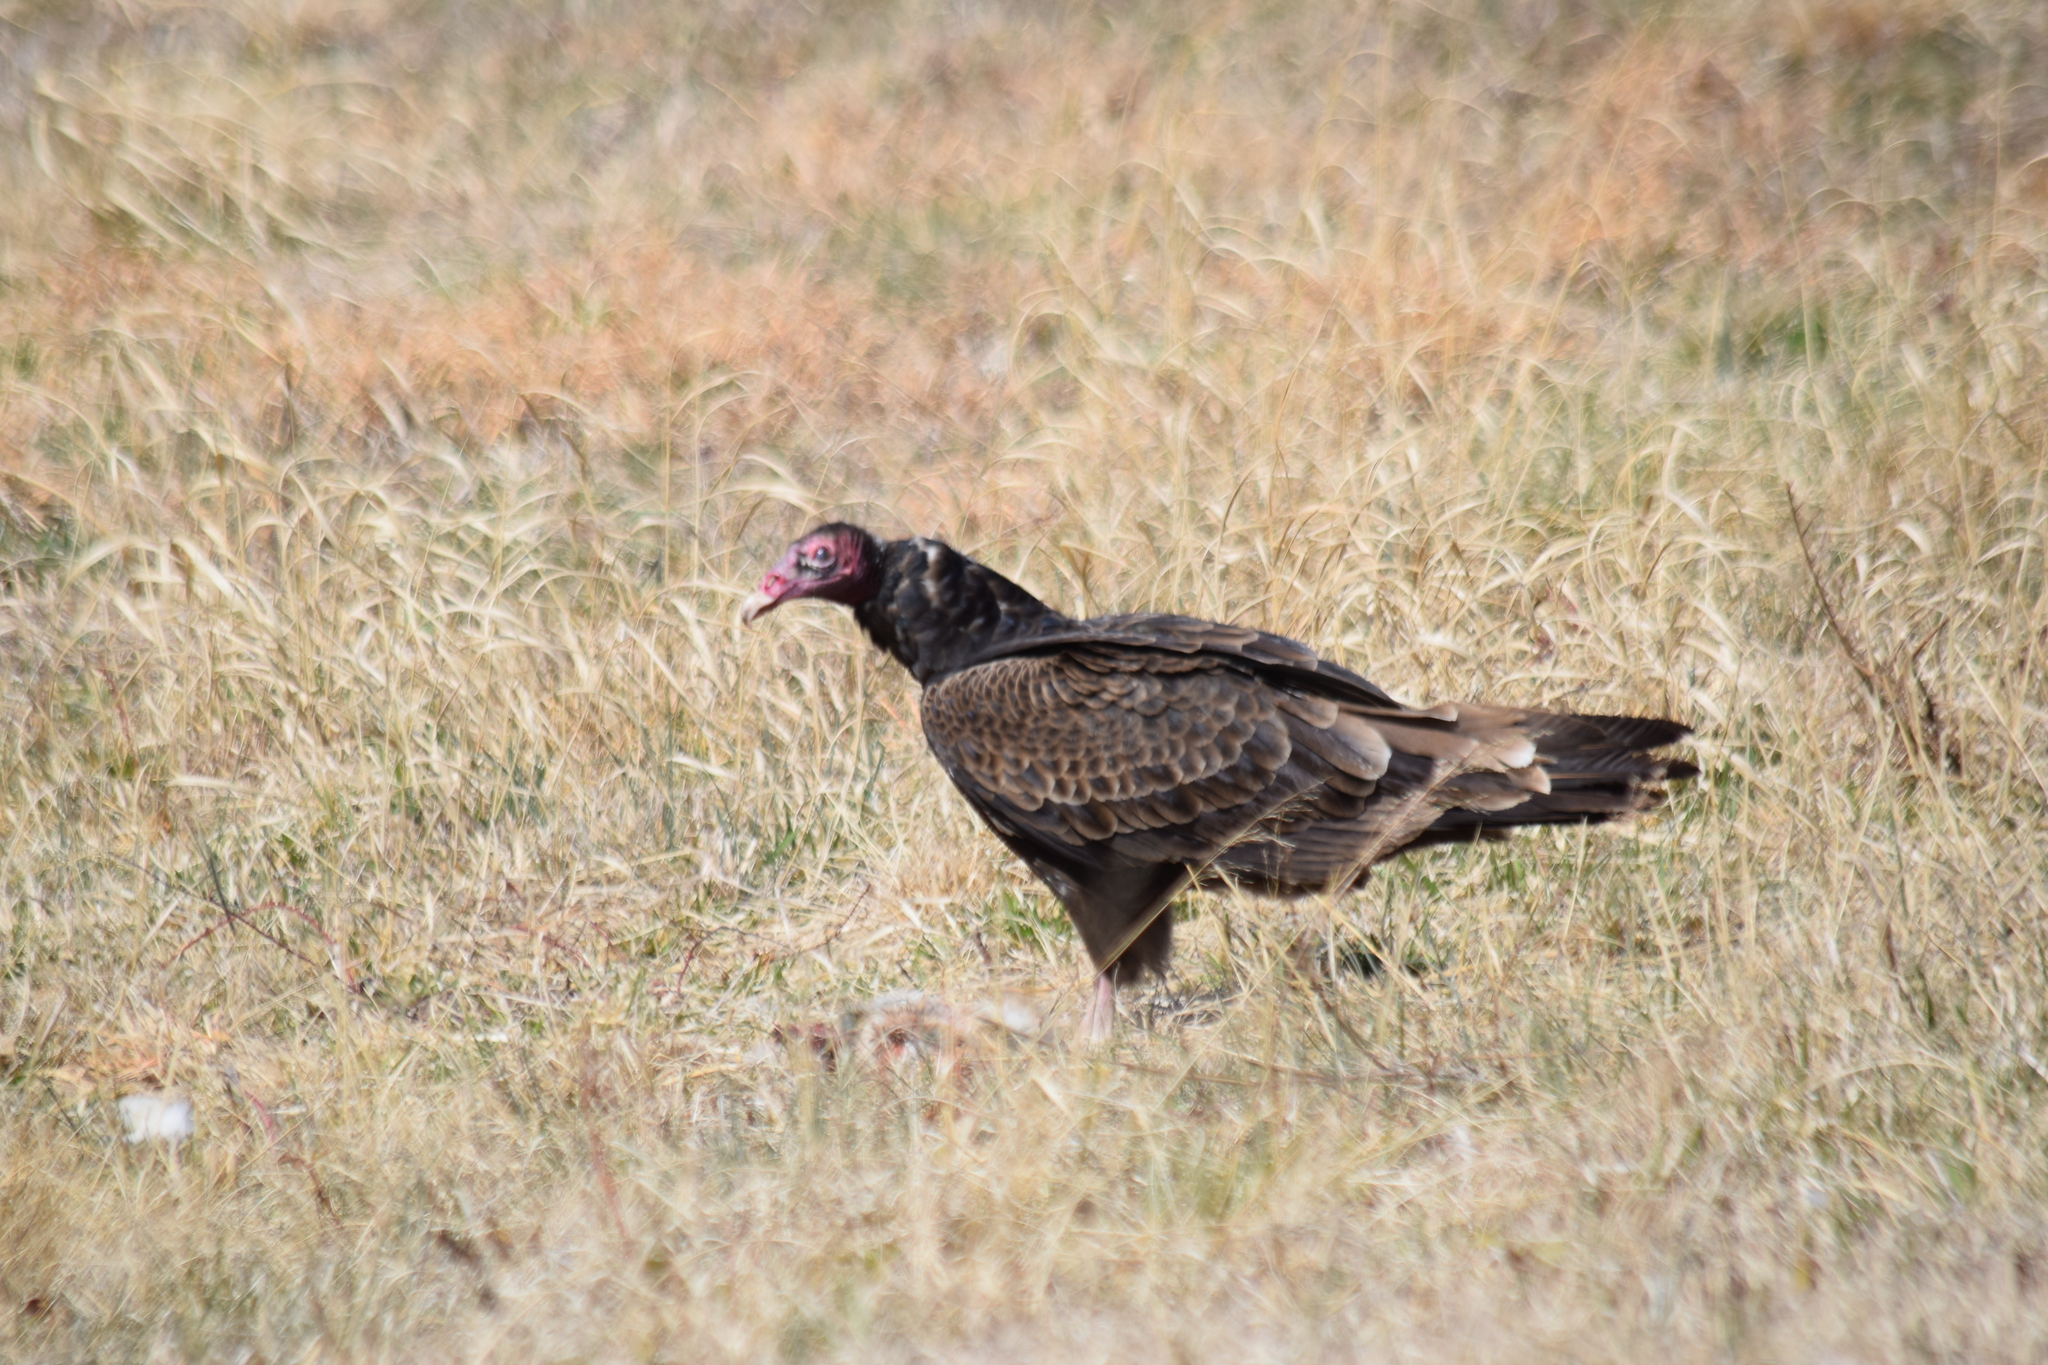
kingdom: Animalia
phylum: Chordata
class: Aves
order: Accipitriformes
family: Cathartidae
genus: Cathartes
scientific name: Cathartes aura
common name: Turkey vulture
